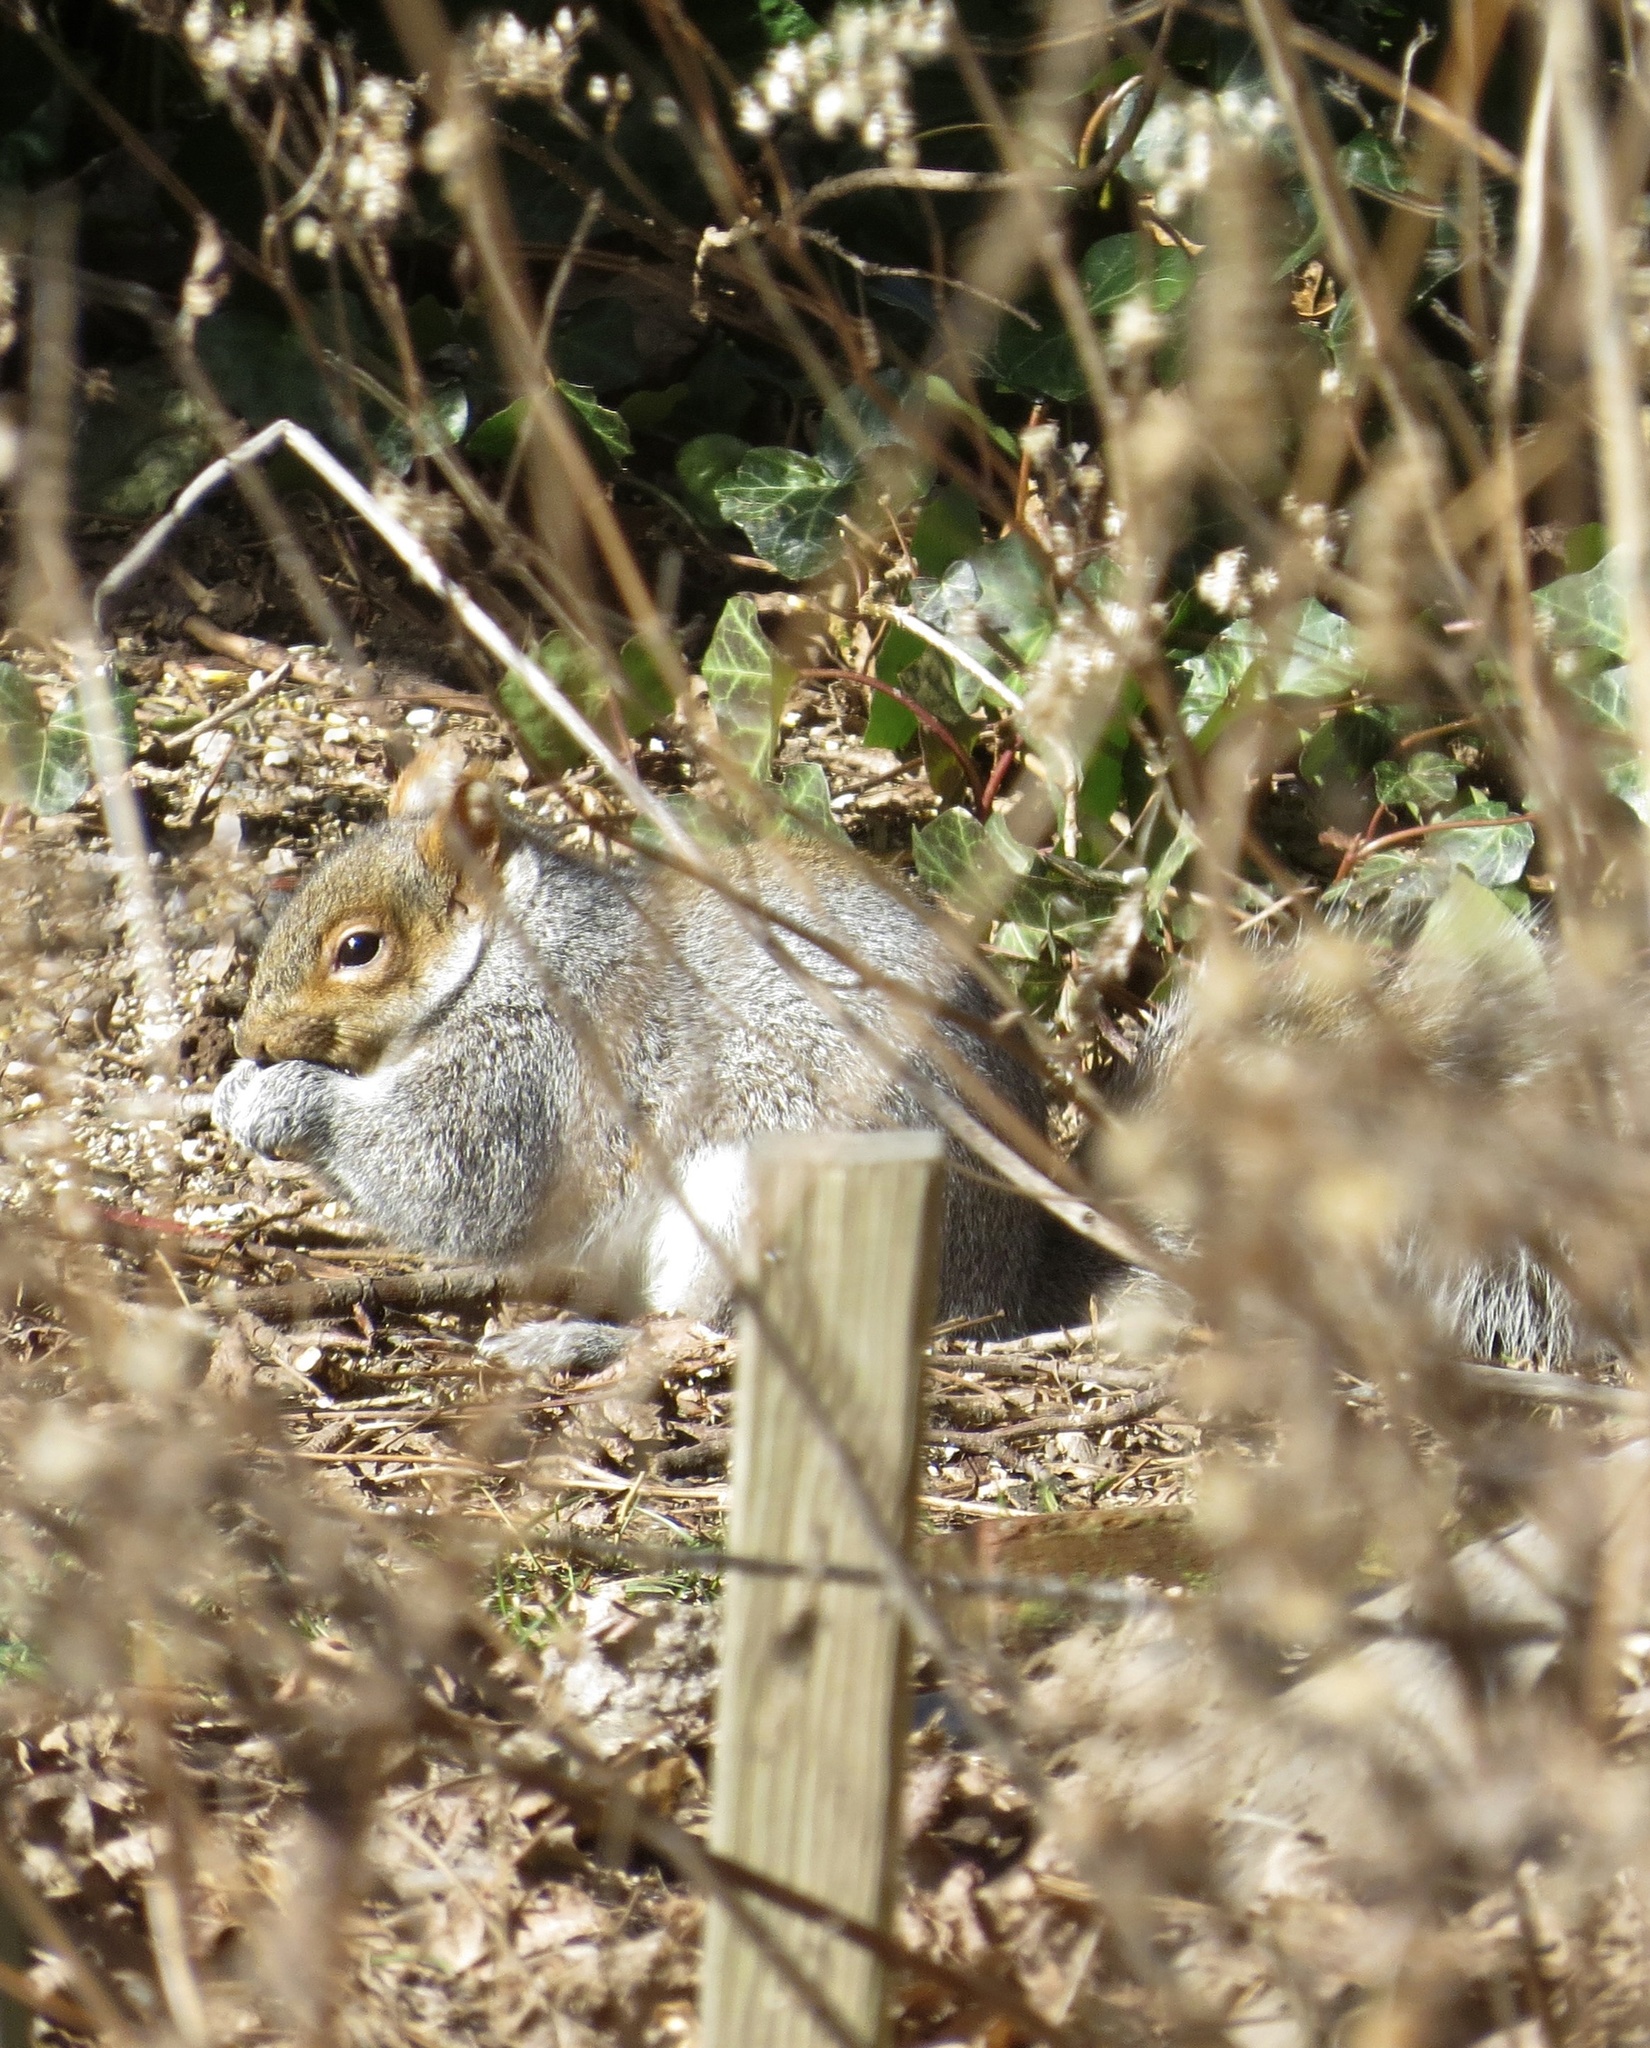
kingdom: Animalia
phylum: Chordata
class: Mammalia
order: Rodentia
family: Sciuridae
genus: Sciurus
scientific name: Sciurus carolinensis
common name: Eastern gray squirrel
